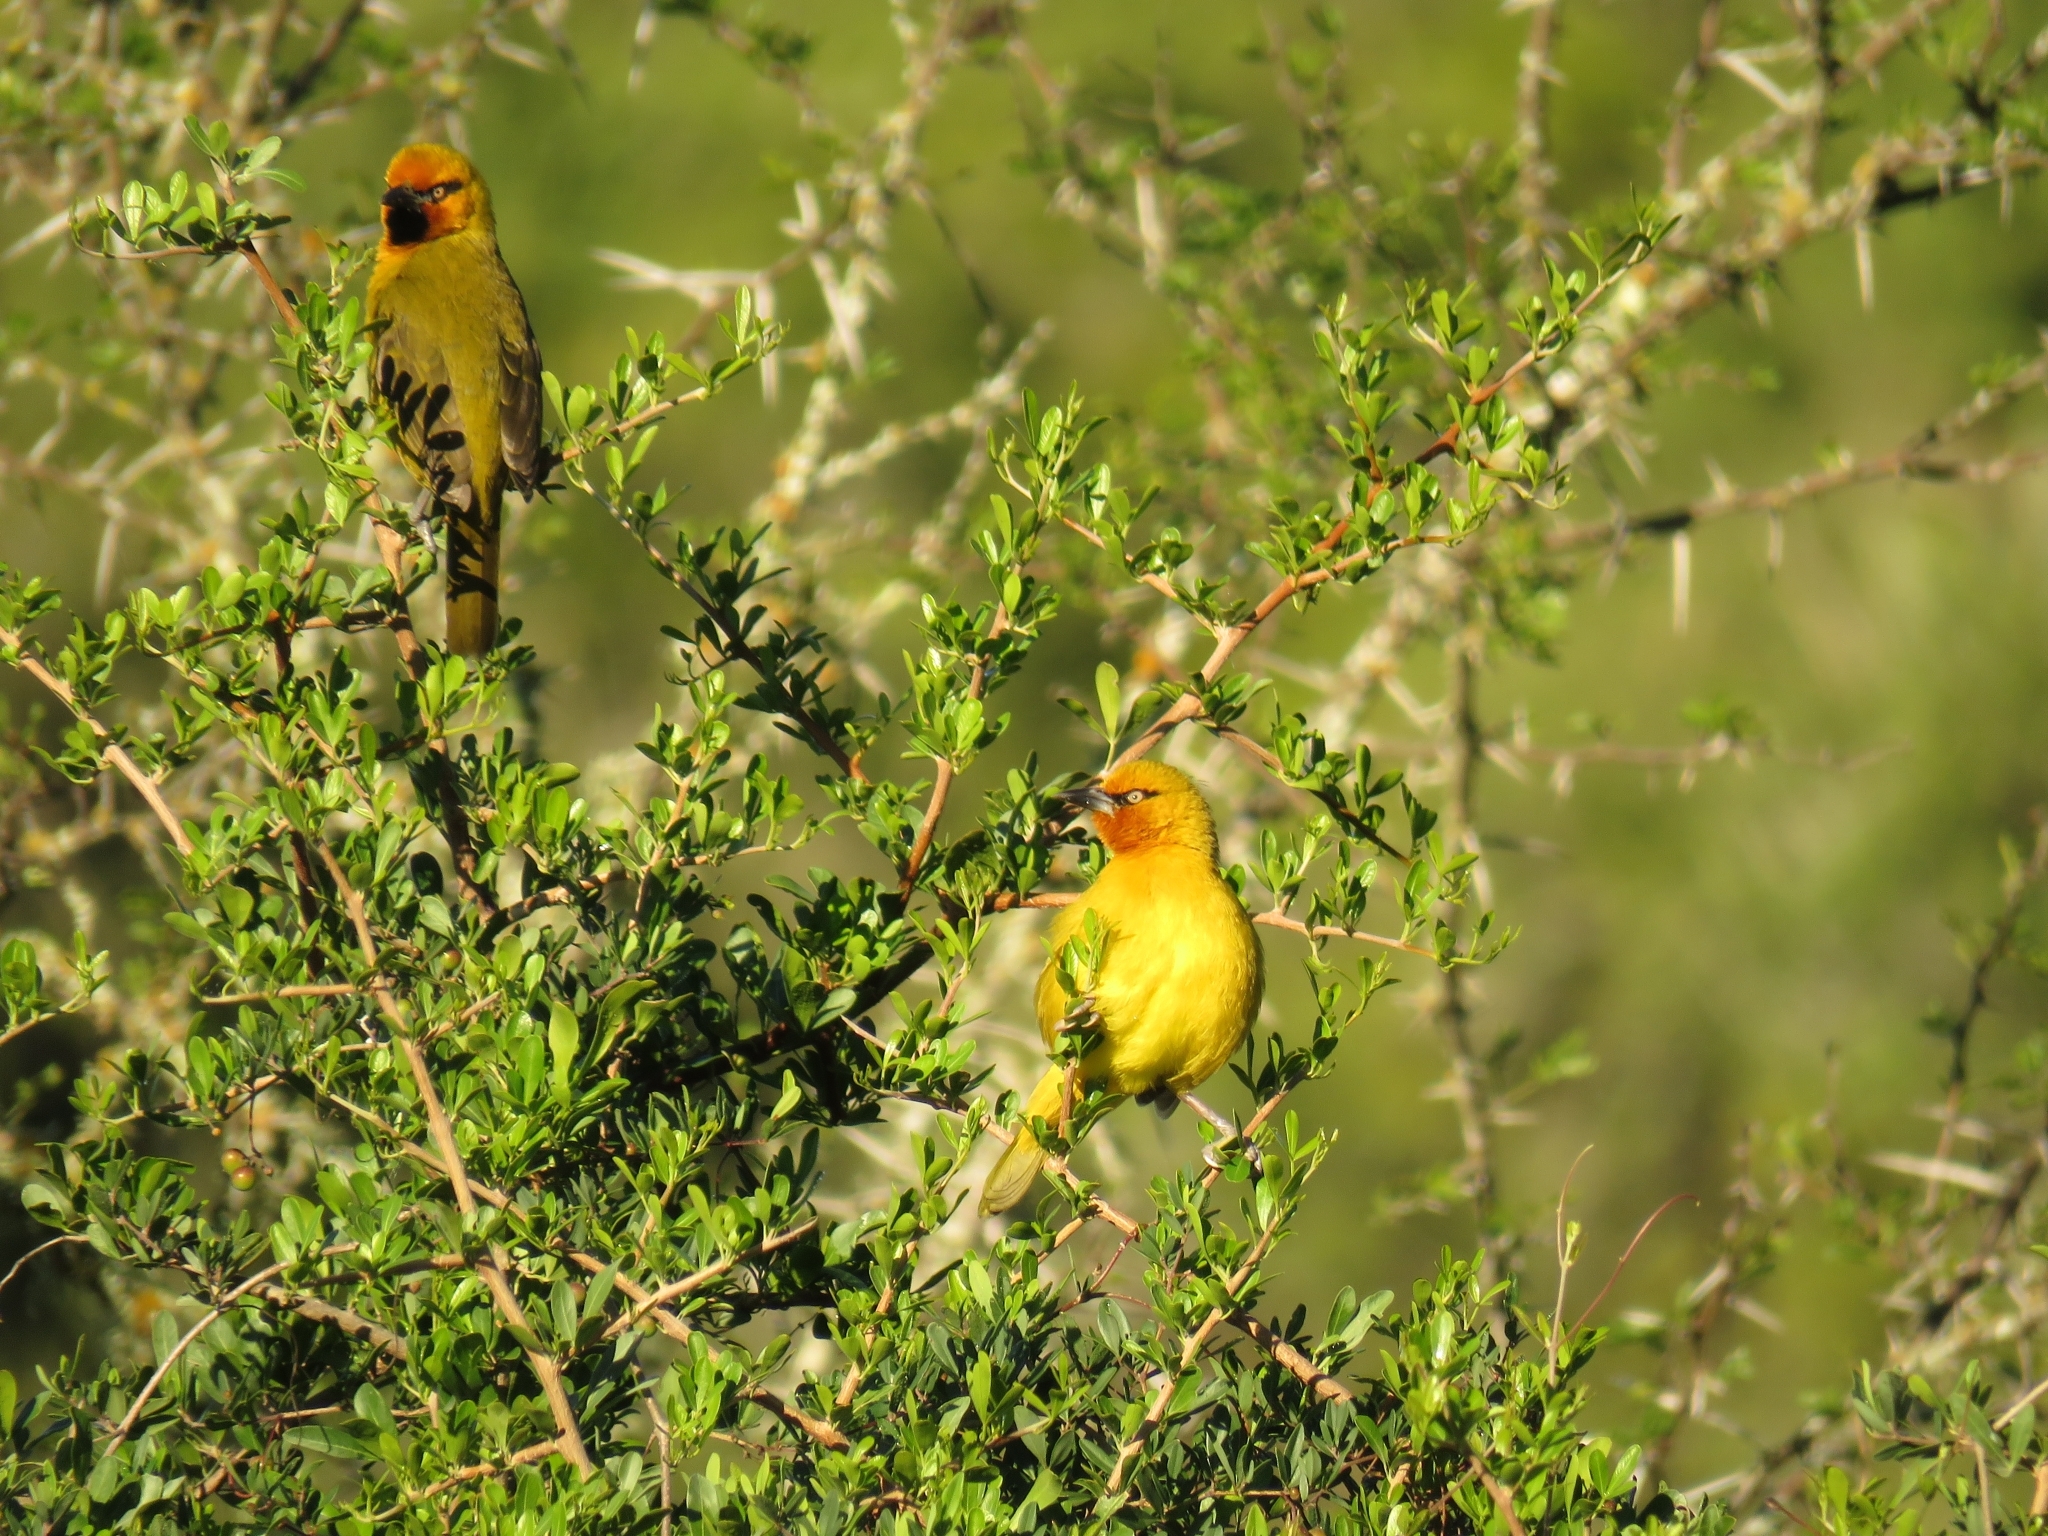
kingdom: Animalia
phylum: Chordata
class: Aves
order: Passeriformes
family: Ploceidae
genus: Ploceus
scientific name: Ploceus ocularis
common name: Spectacled weaver
